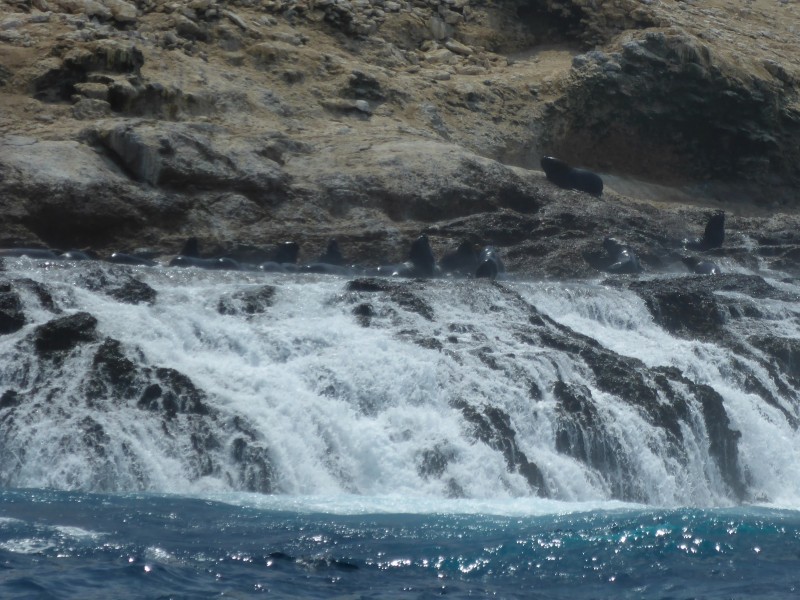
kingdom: Animalia
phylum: Chordata
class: Mammalia
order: Carnivora
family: Otariidae
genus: Otaria
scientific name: Otaria byronia
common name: South american sea lion
